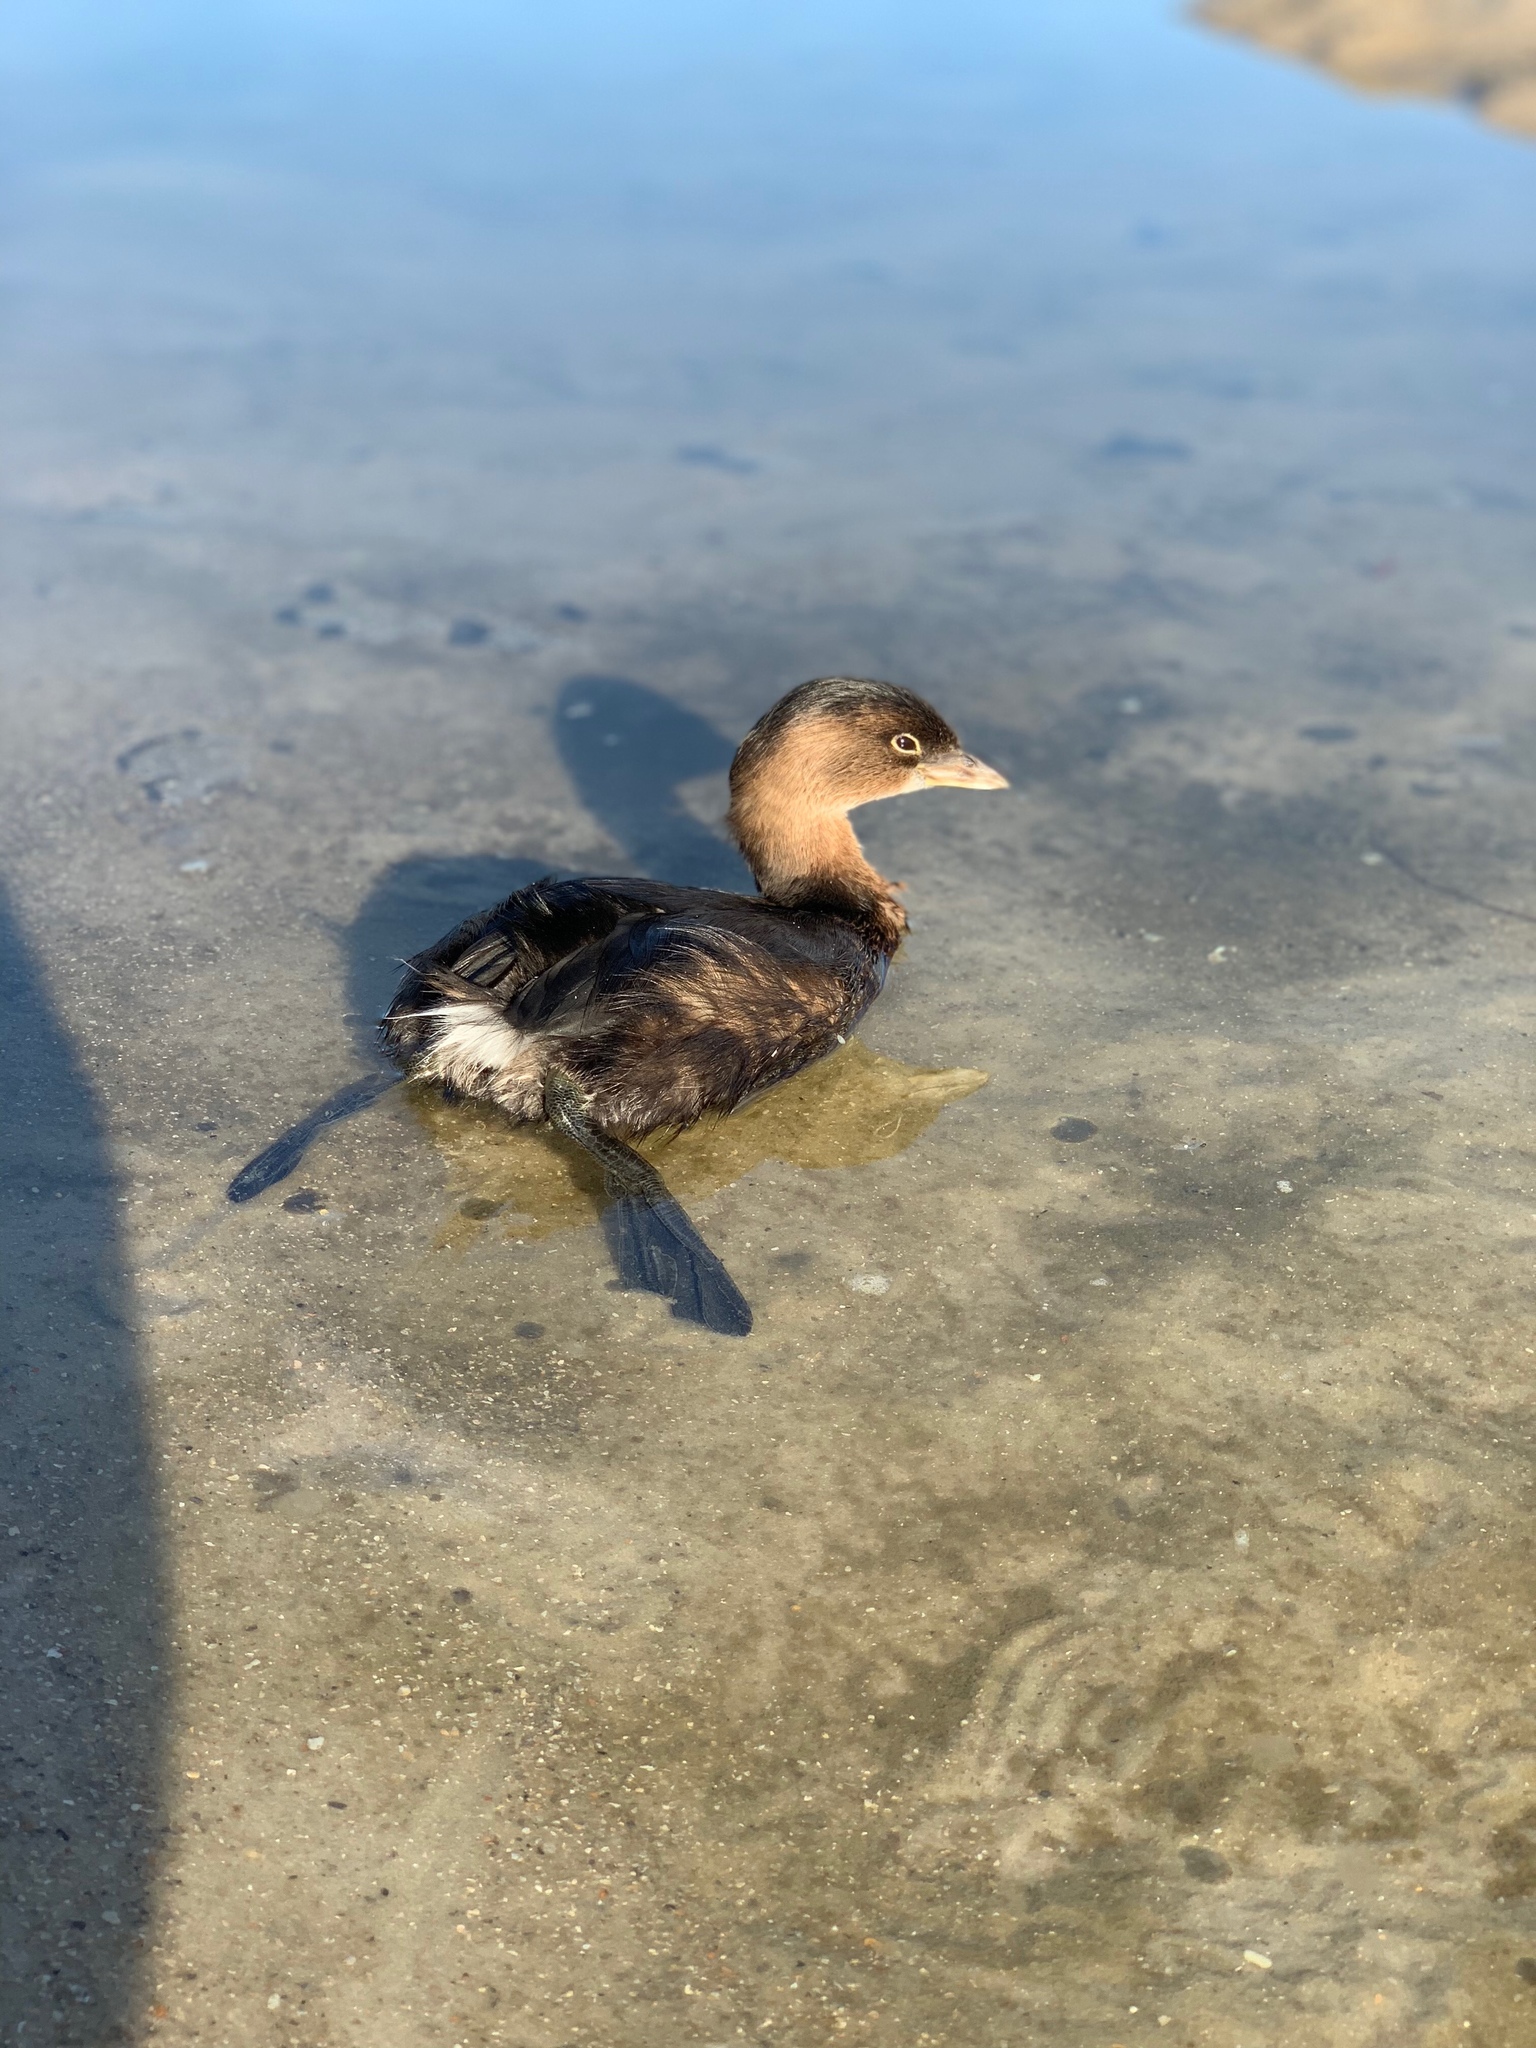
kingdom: Animalia
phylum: Chordata
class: Aves
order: Podicipediformes
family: Podicipedidae
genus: Podilymbus
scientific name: Podilymbus podiceps
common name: Pied-billed grebe
